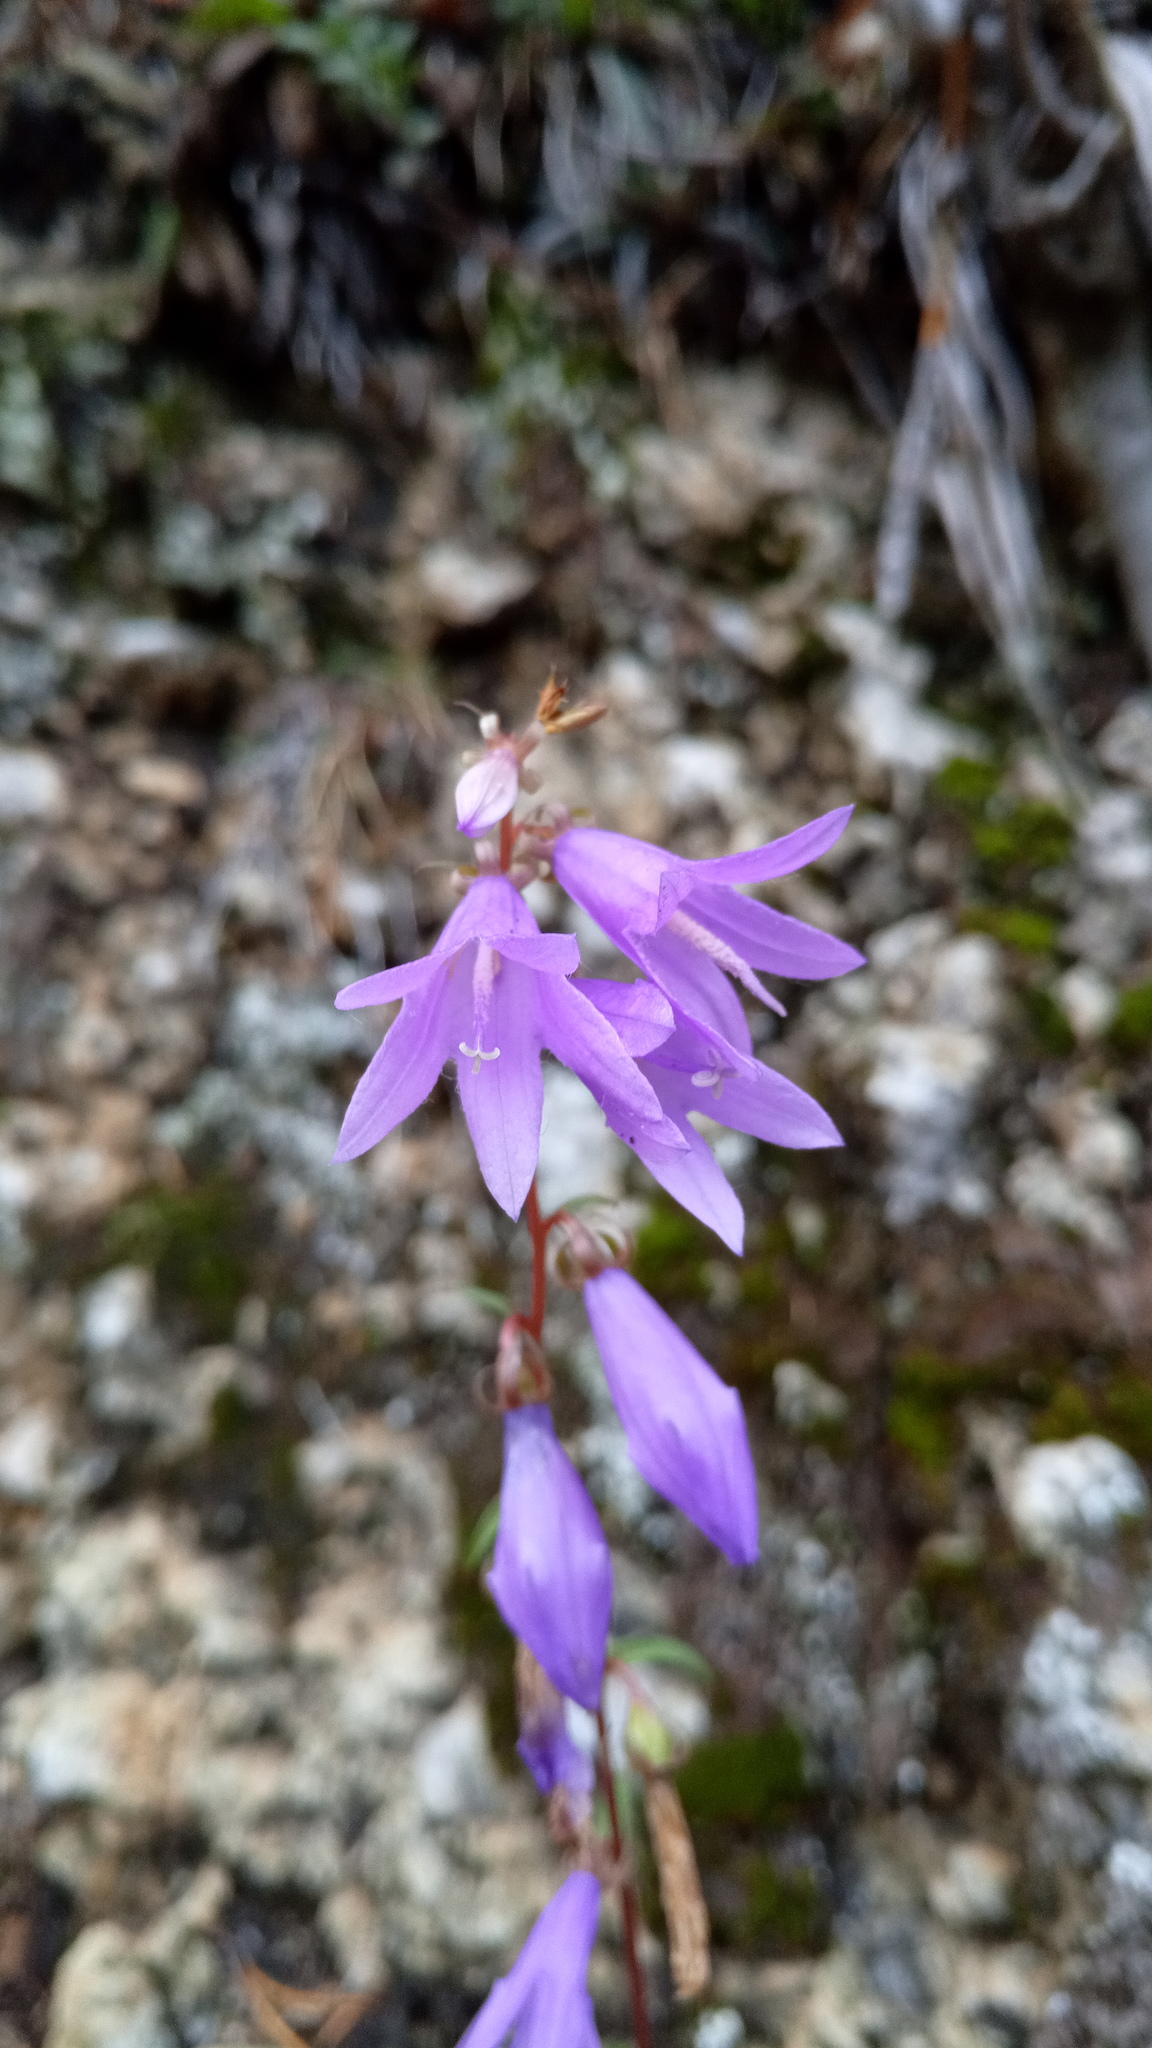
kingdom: Plantae
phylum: Tracheophyta
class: Magnoliopsida
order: Asterales
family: Campanulaceae
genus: Campanula
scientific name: Campanula rapunculoides
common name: Creeping bellflower
